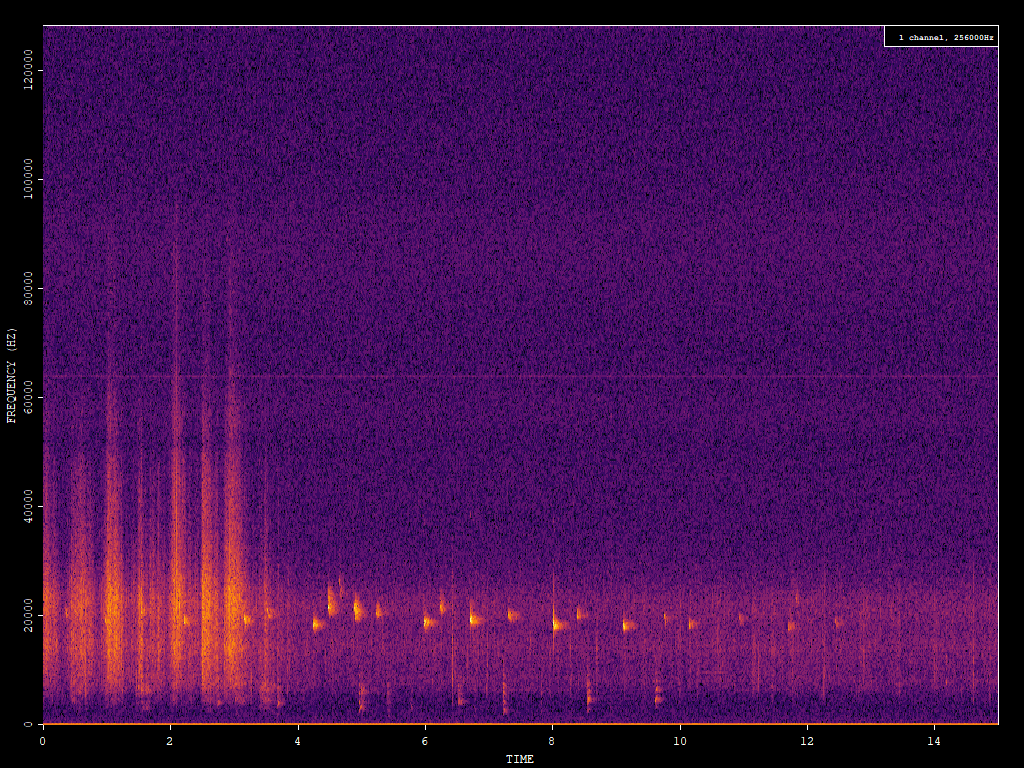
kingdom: Animalia
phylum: Chordata
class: Mammalia
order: Chiroptera
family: Vespertilionidae
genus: Nyctalus
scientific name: Nyctalus noctula
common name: Noctule
